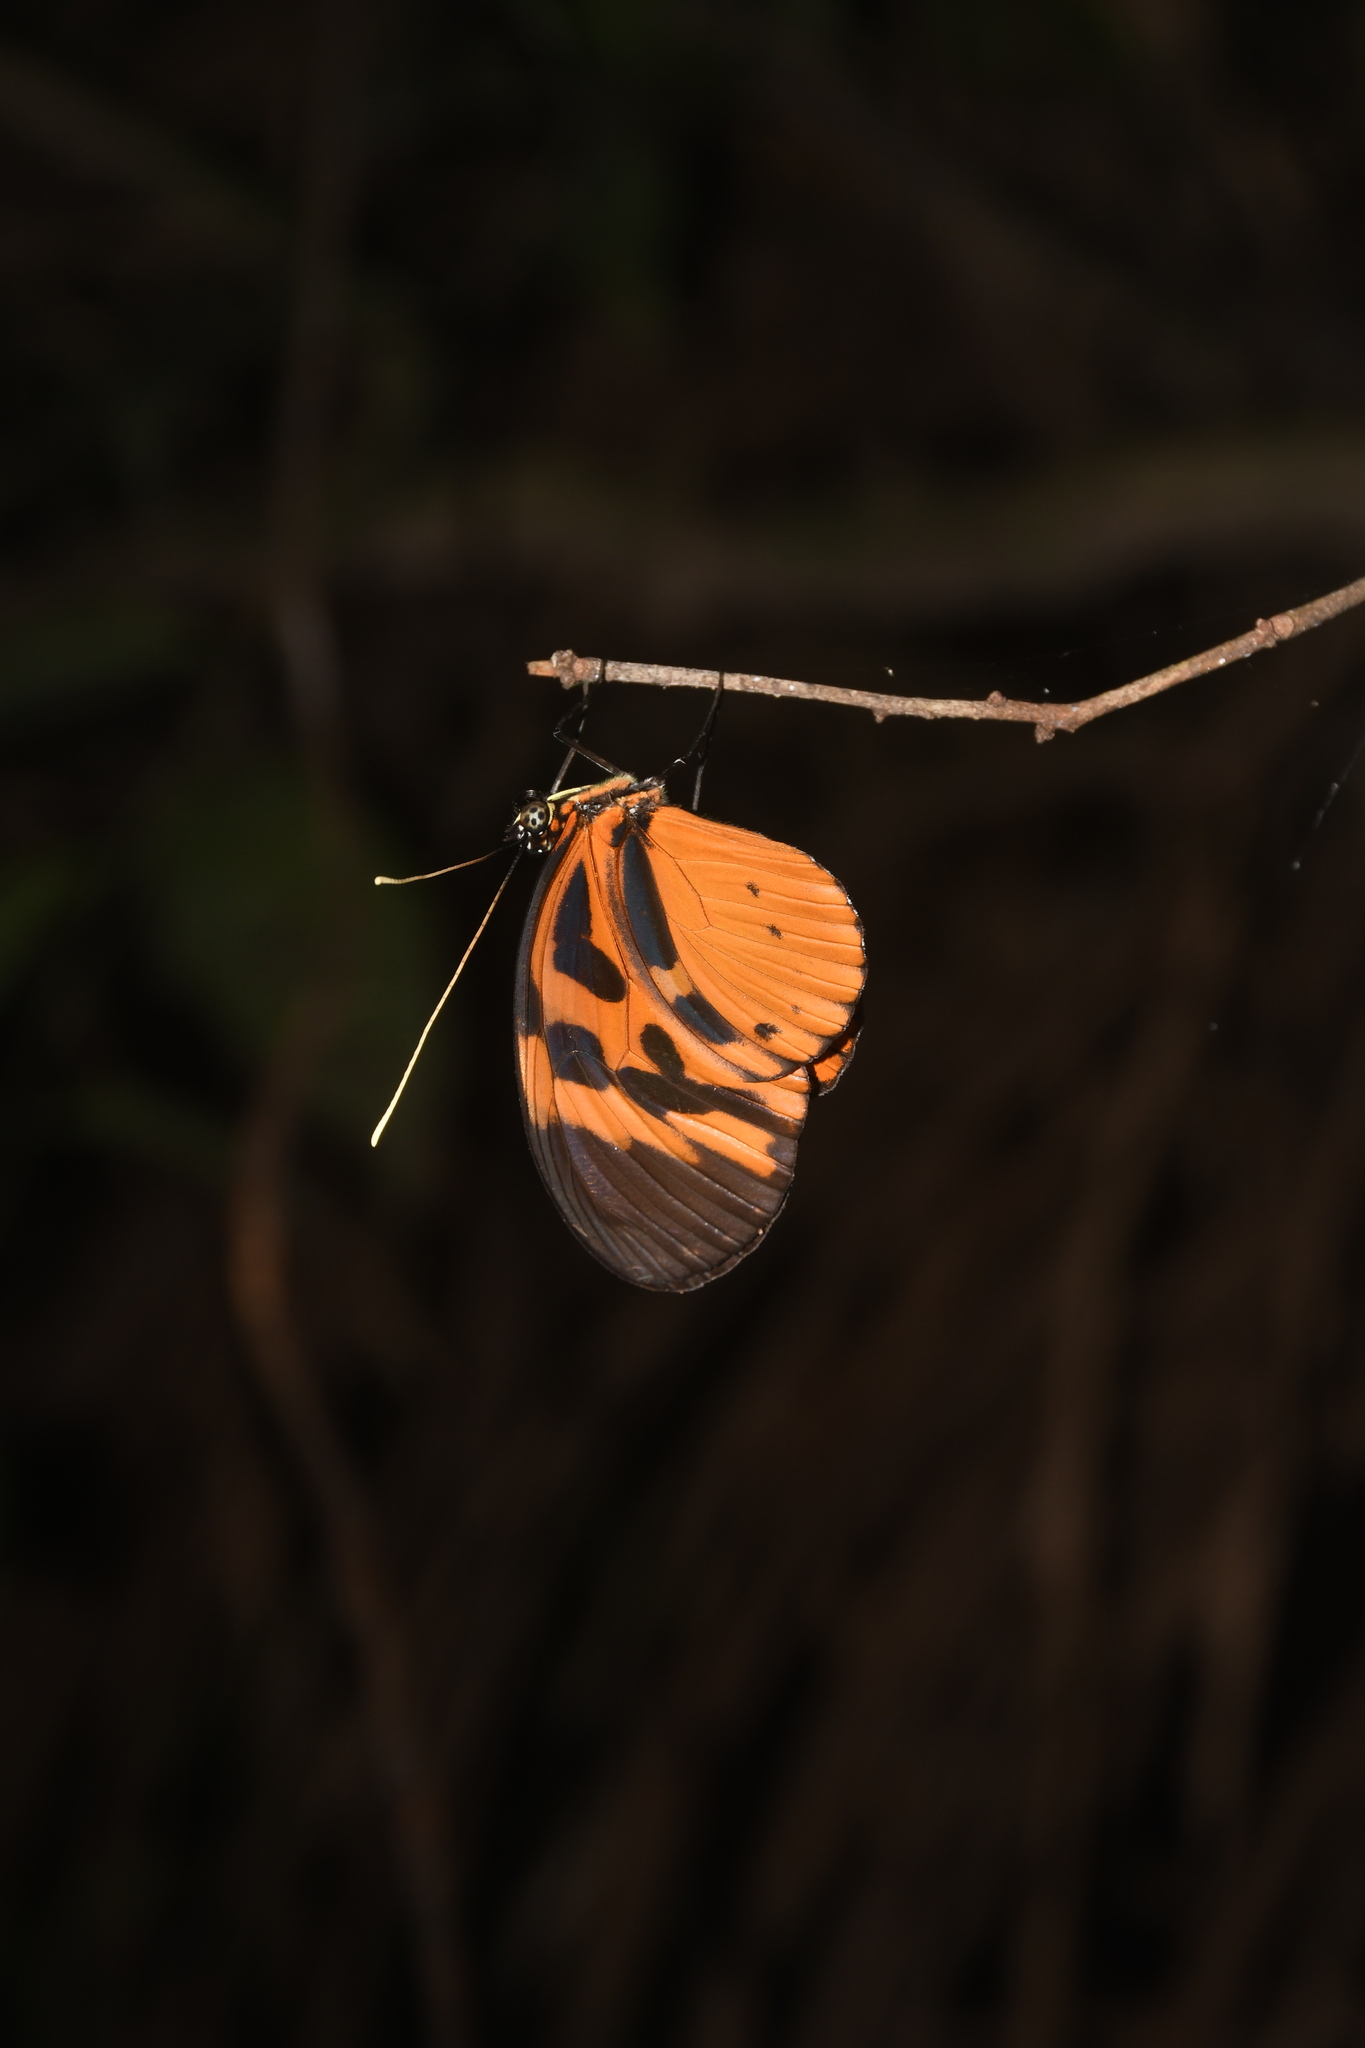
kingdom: Animalia
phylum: Arthropoda
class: Insecta
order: Lepidoptera
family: Nymphalidae
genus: Heliconius
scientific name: Heliconius numatus
